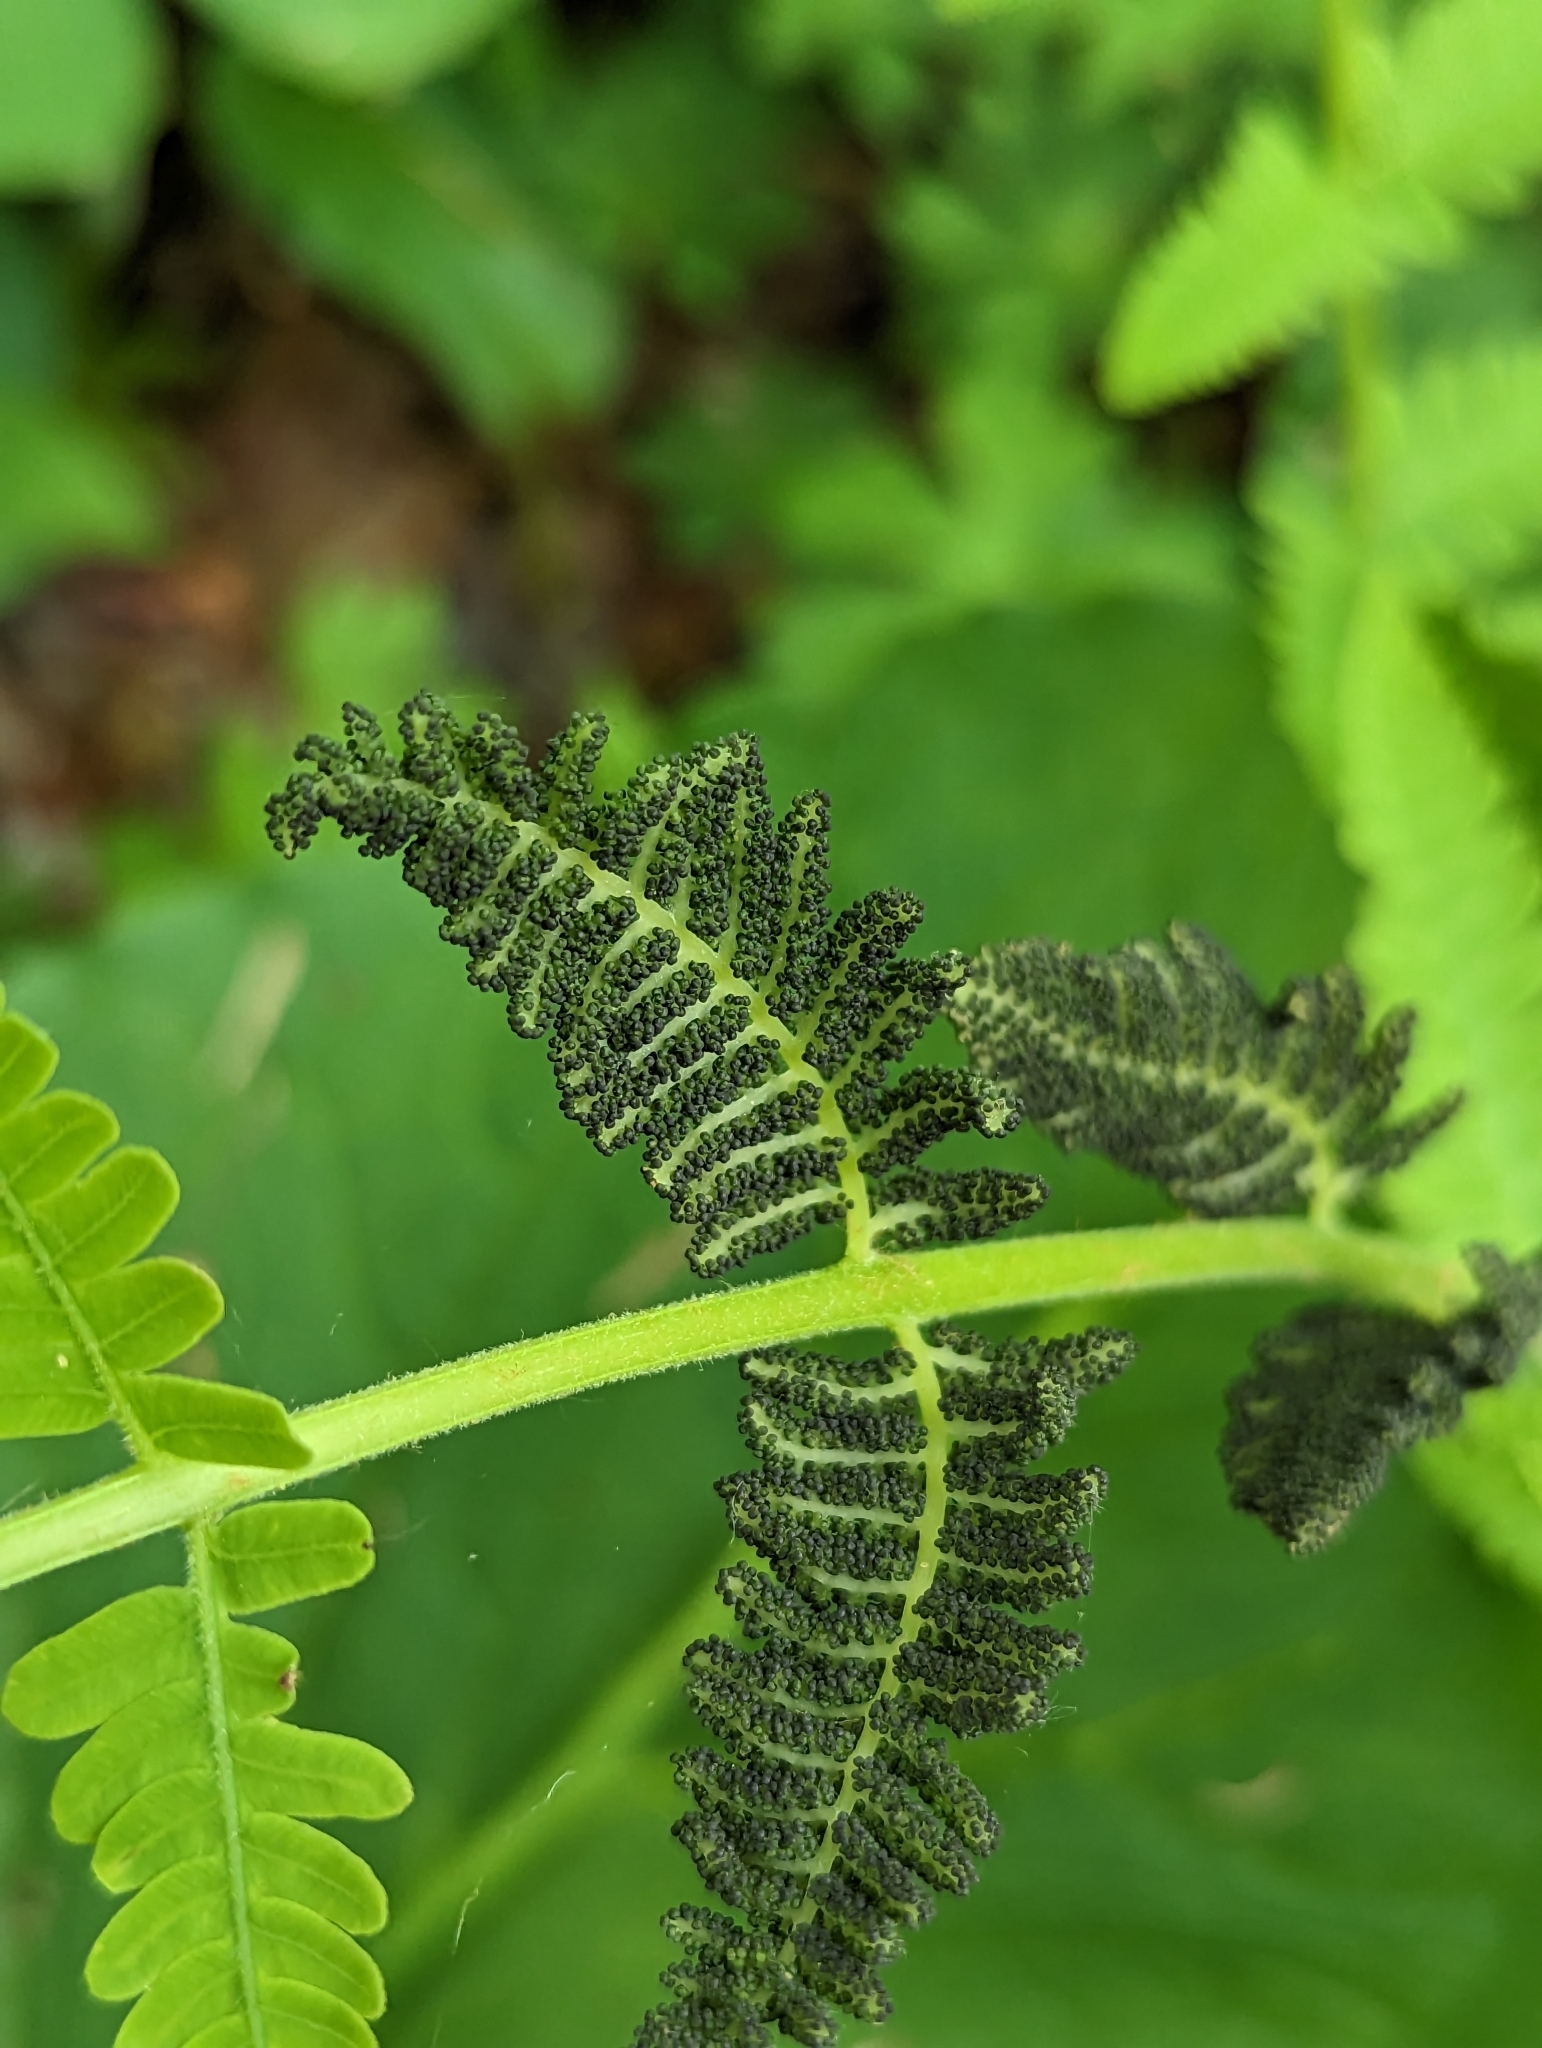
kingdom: Plantae
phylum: Tracheophyta
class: Polypodiopsida
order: Osmundales
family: Osmundaceae
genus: Claytosmunda
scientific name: Claytosmunda claytoniana
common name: Clayton's fern
